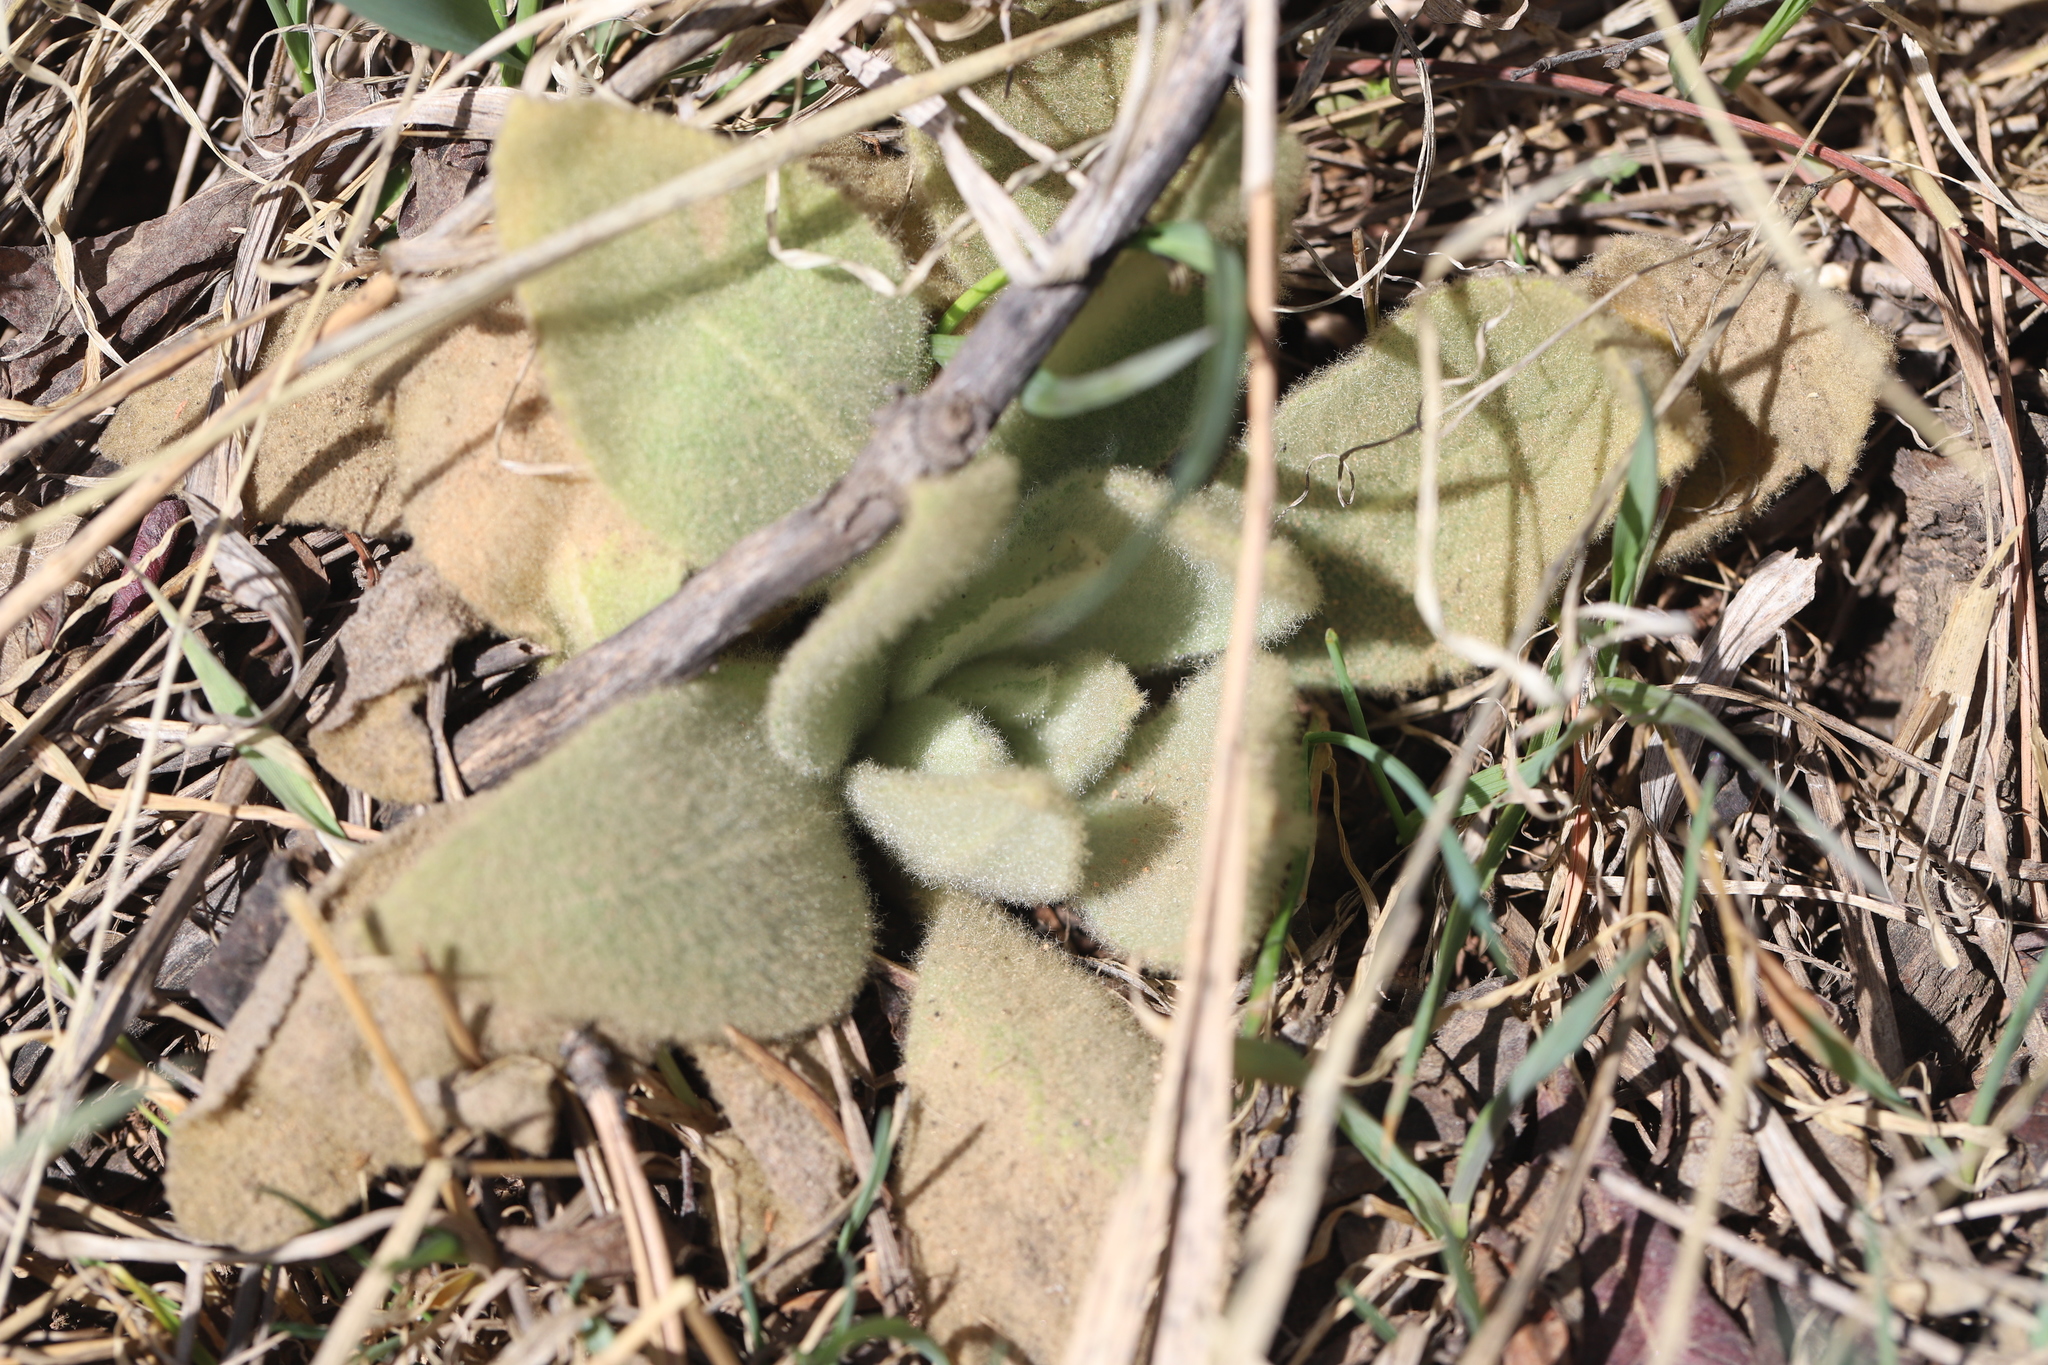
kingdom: Plantae
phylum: Tracheophyta
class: Magnoliopsida
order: Lamiales
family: Scrophulariaceae
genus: Verbascum
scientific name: Verbascum thapsus
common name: Common mullein
